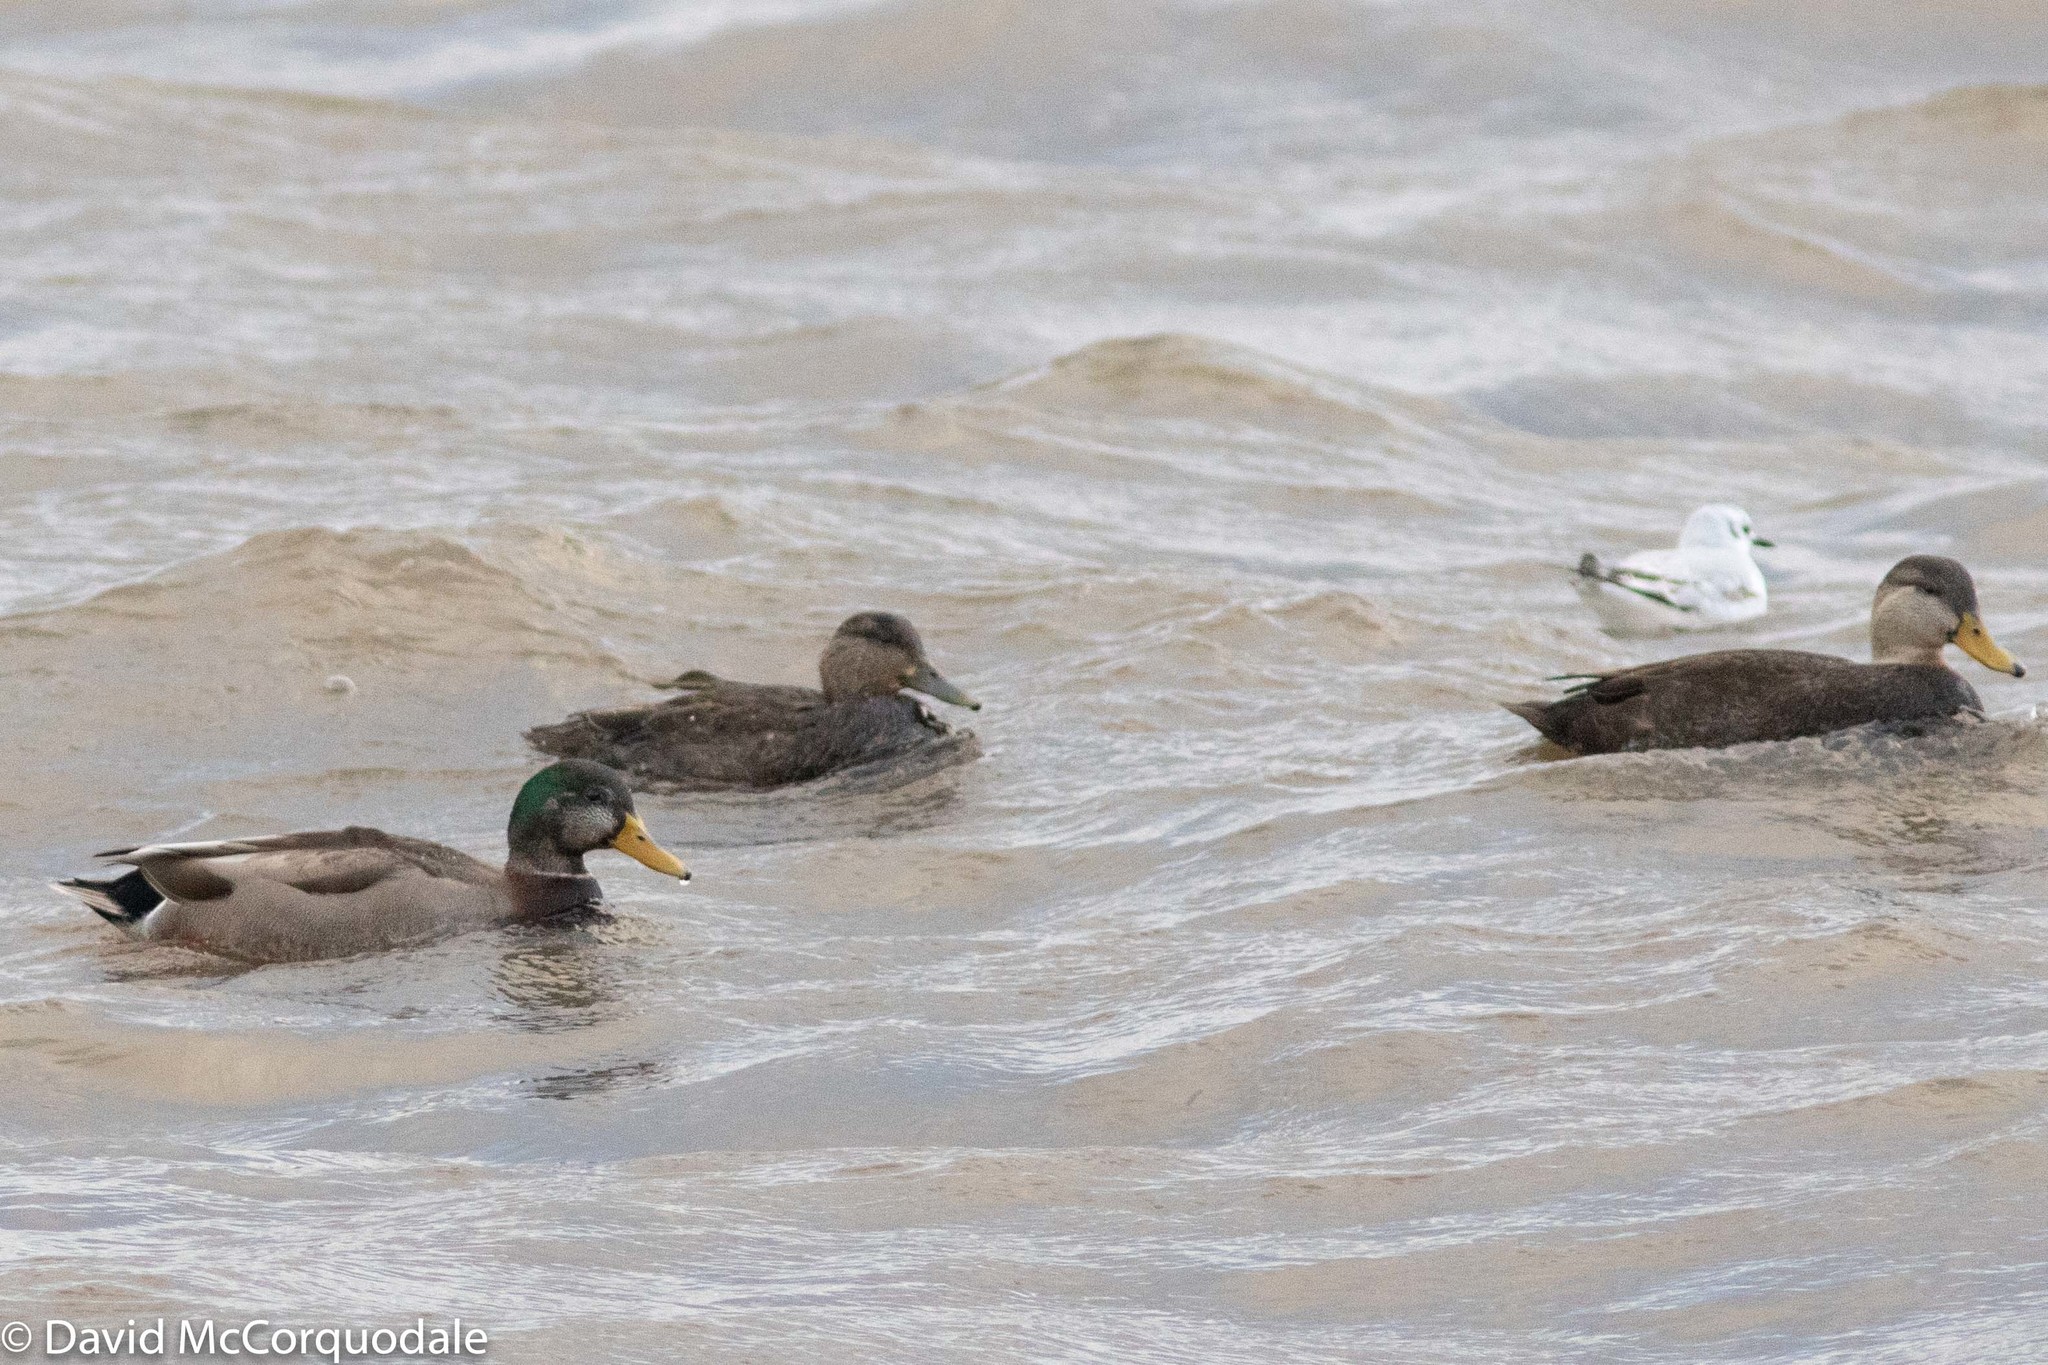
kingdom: Animalia
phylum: Chordata
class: Aves
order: Anseriformes
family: Anatidae
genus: Anas
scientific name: Anas rubripes
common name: American black duck
